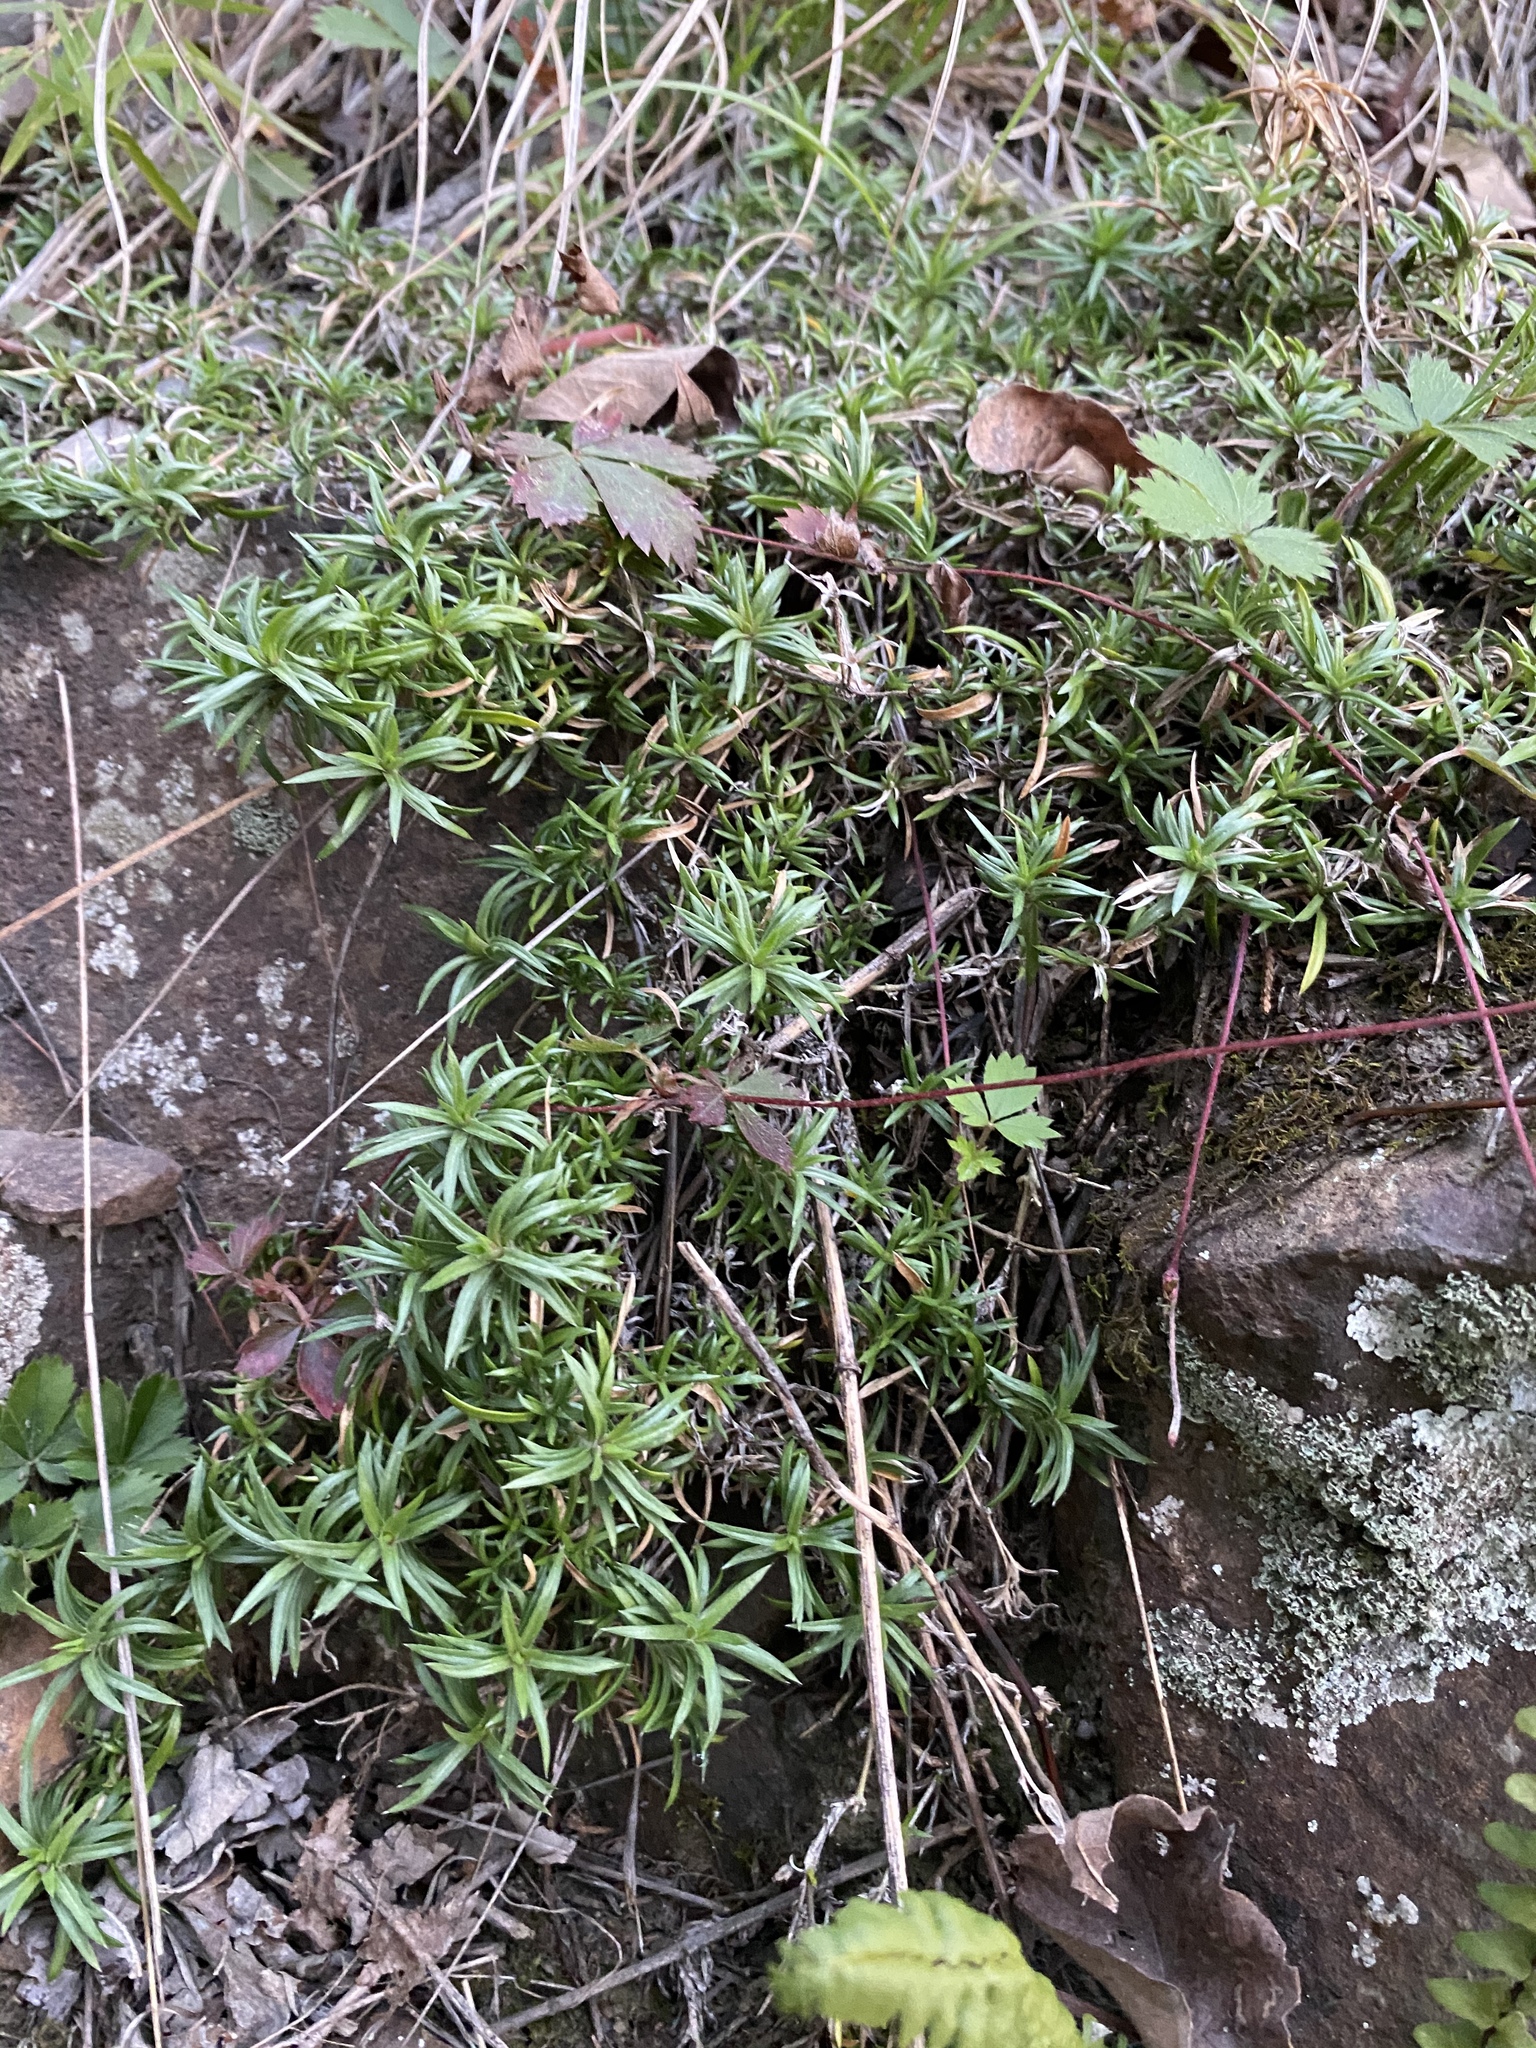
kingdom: Plantae
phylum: Tracheophyta
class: Magnoliopsida
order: Ericales
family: Polemoniaceae
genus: Phlox
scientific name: Phlox subulata
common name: Moss phlox
